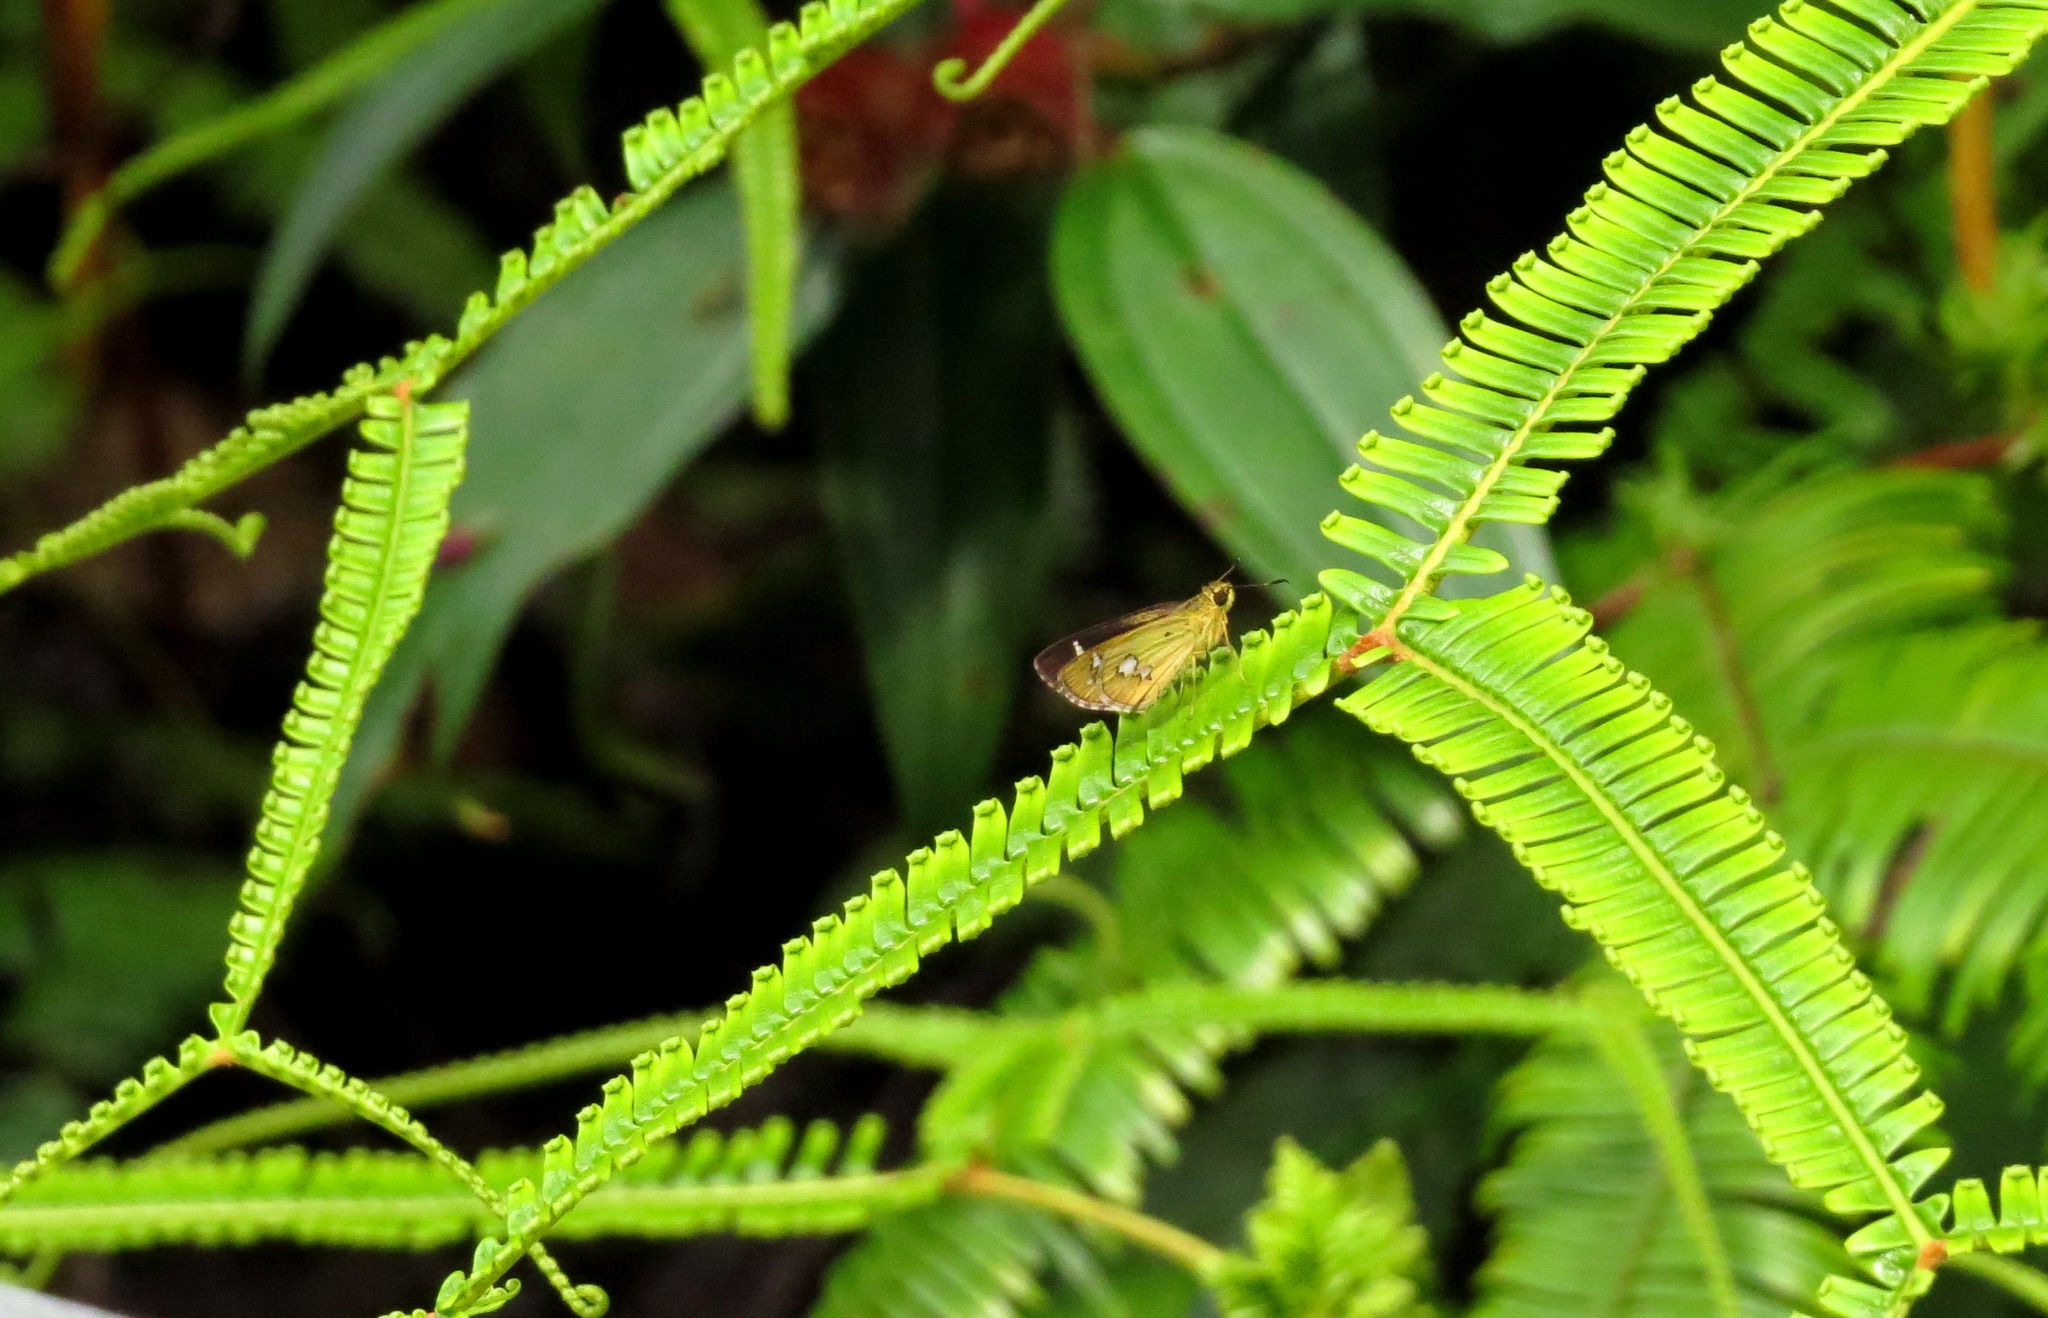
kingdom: Animalia
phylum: Arthropoda
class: Insecta
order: Lepidoptera
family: Hesperiidae
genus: Scobura
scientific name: Scobura isota
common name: Swinhoe's forest bob
